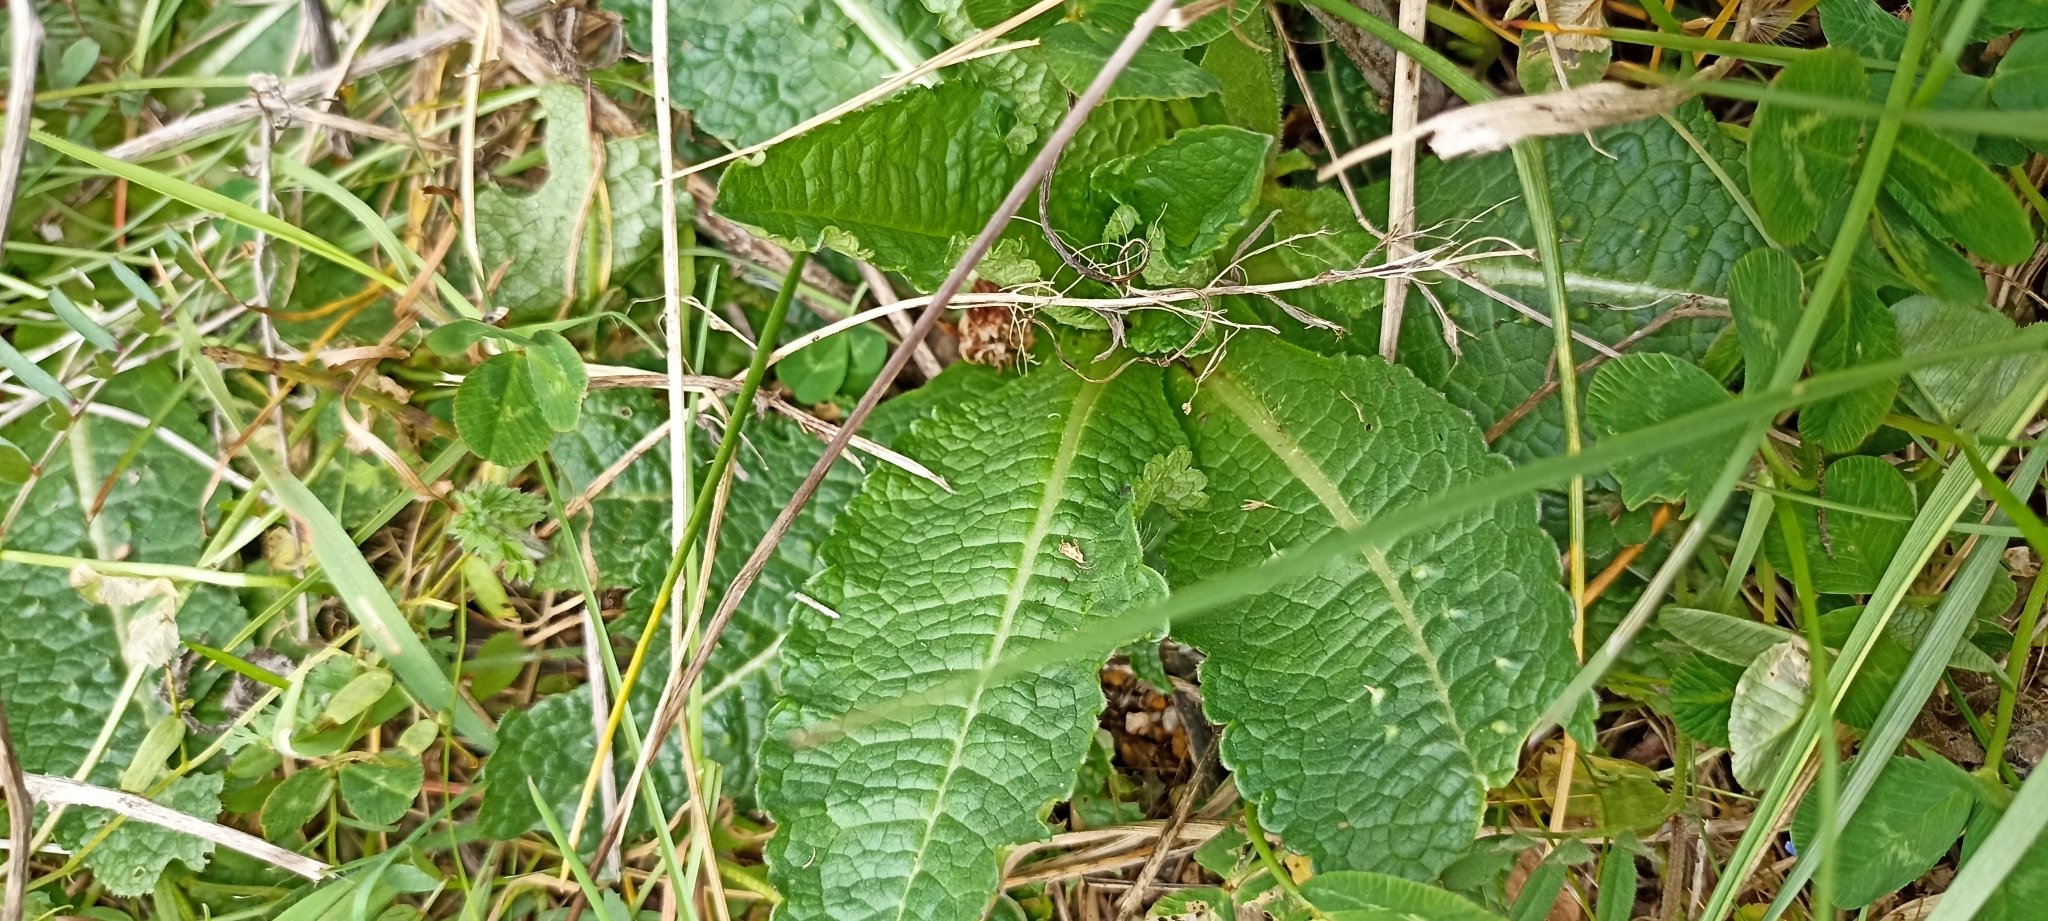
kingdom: Plantae
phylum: Tracheophyta
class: Magnoliopsida
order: Dipsacales
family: Caprifoliaceae
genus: Dipsacus
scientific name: Dipsacus fullonum
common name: Teasel
